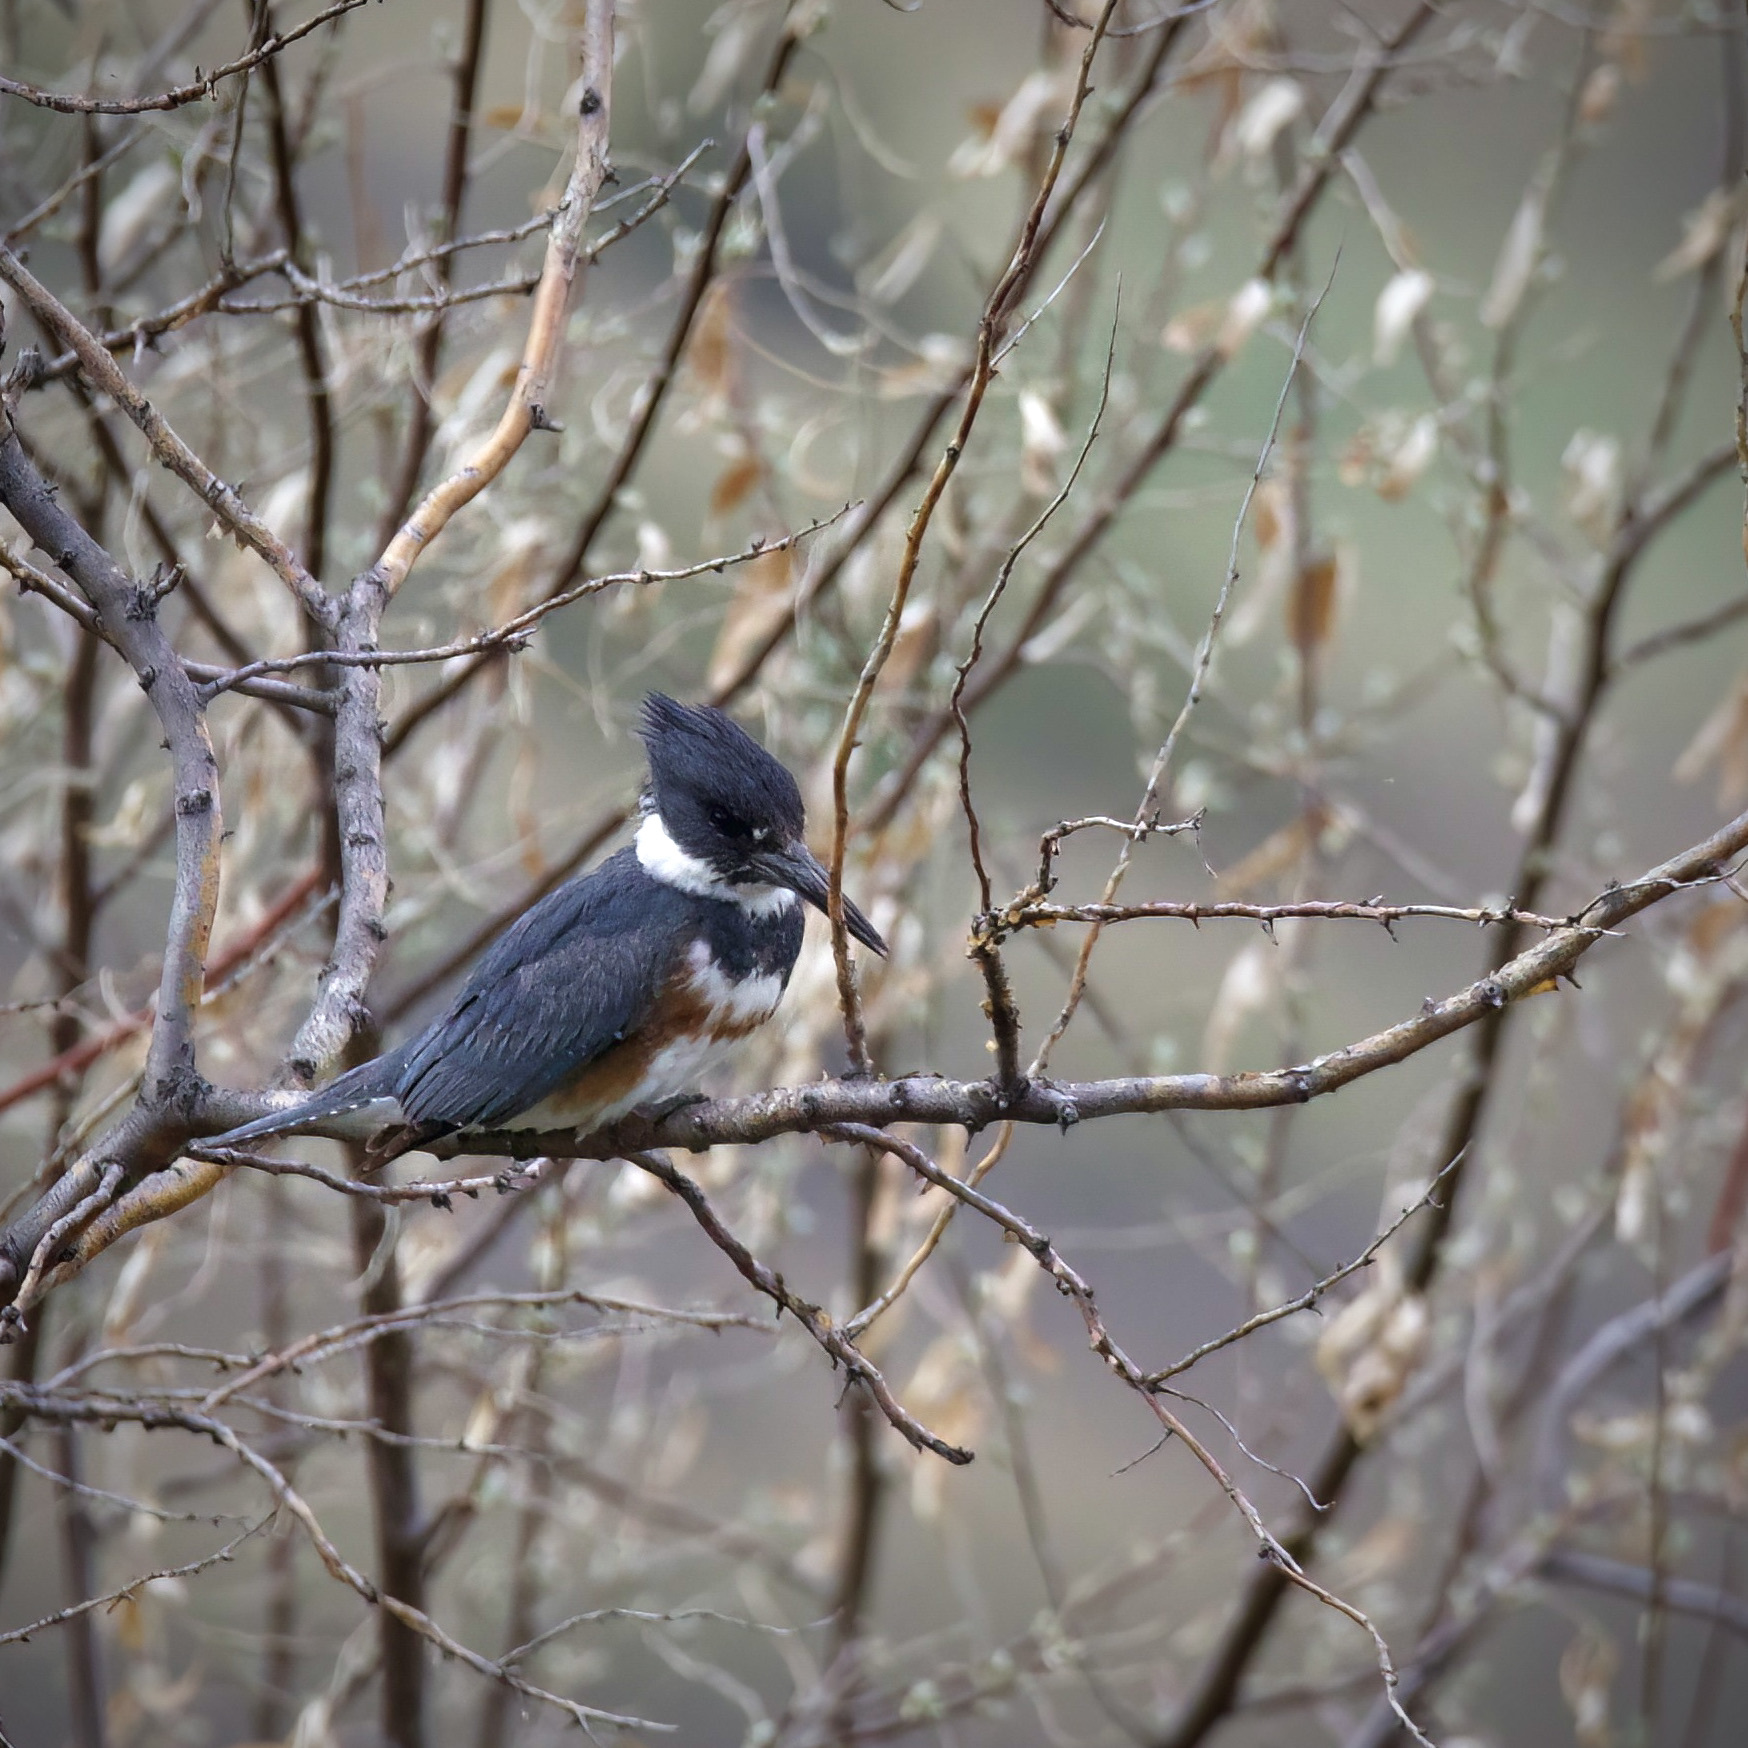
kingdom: Animalia
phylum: Chordata
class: Aves
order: Coraciiformes
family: Alcedinidae
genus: Megaceryle
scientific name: Megaceryle alcyon
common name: Belted kingfisher
